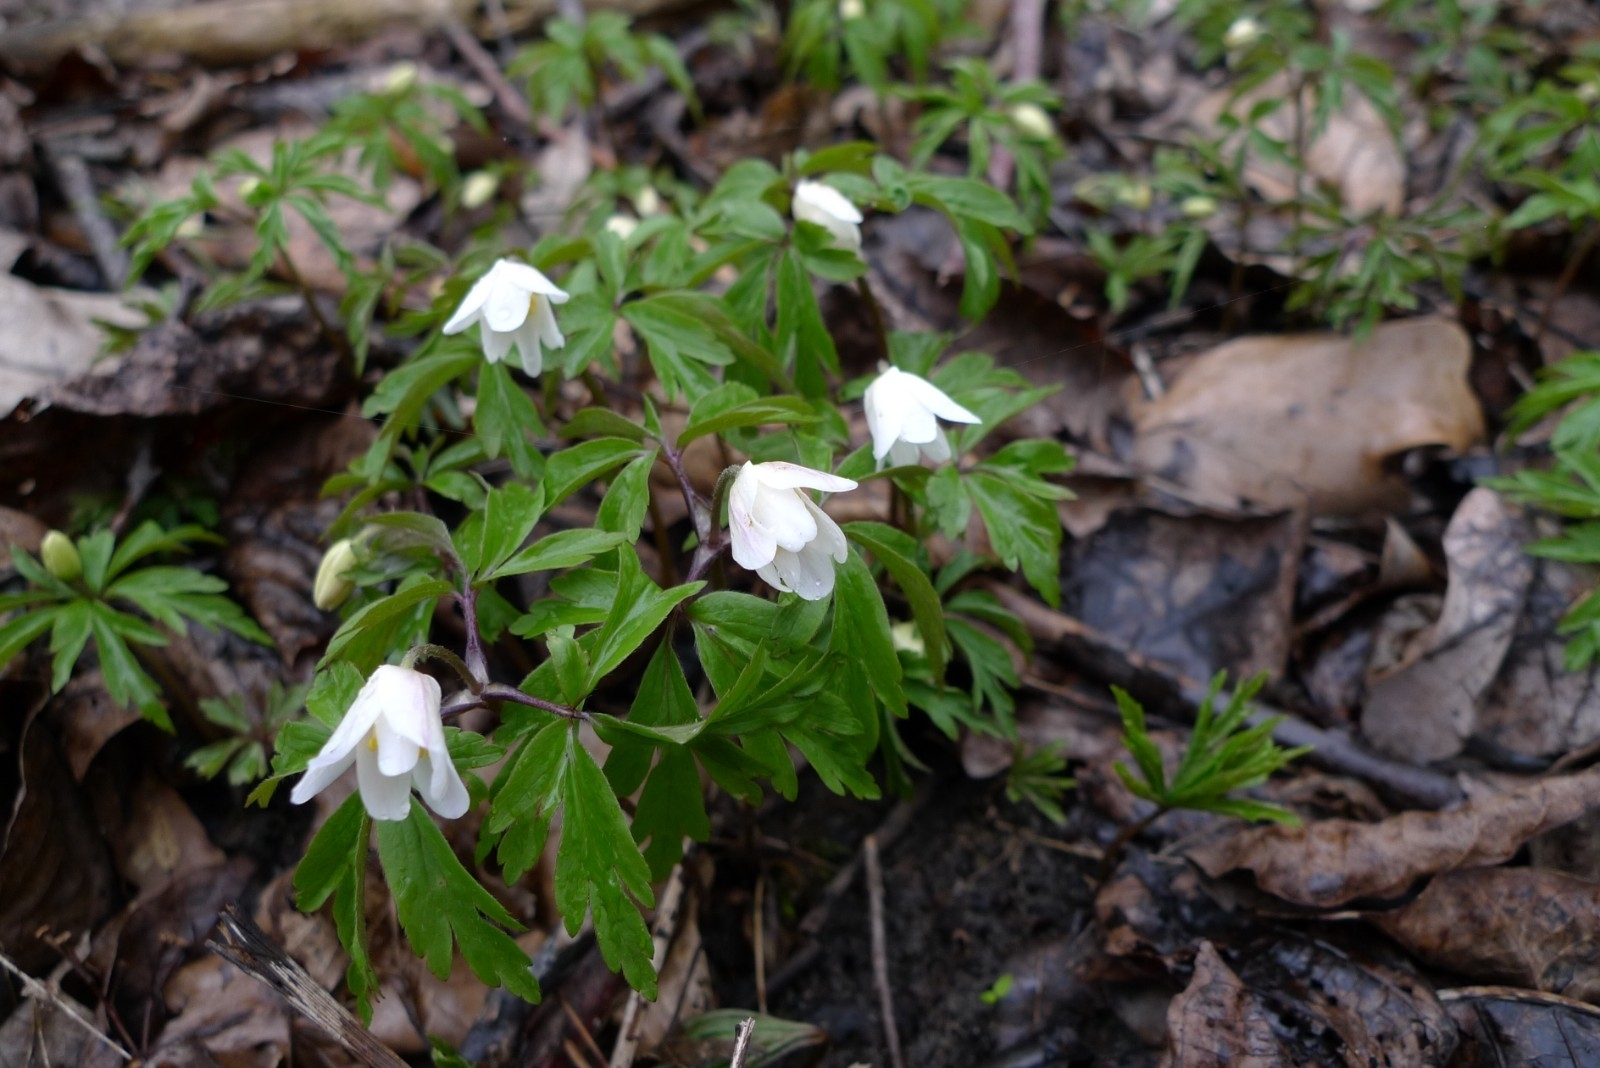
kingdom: Plantae
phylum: Tracheophyta
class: Magnoliopsida
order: Ranunculales
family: Ranunculaceae
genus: Anemone
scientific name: Anemone nemorosa
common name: Wood anemone
